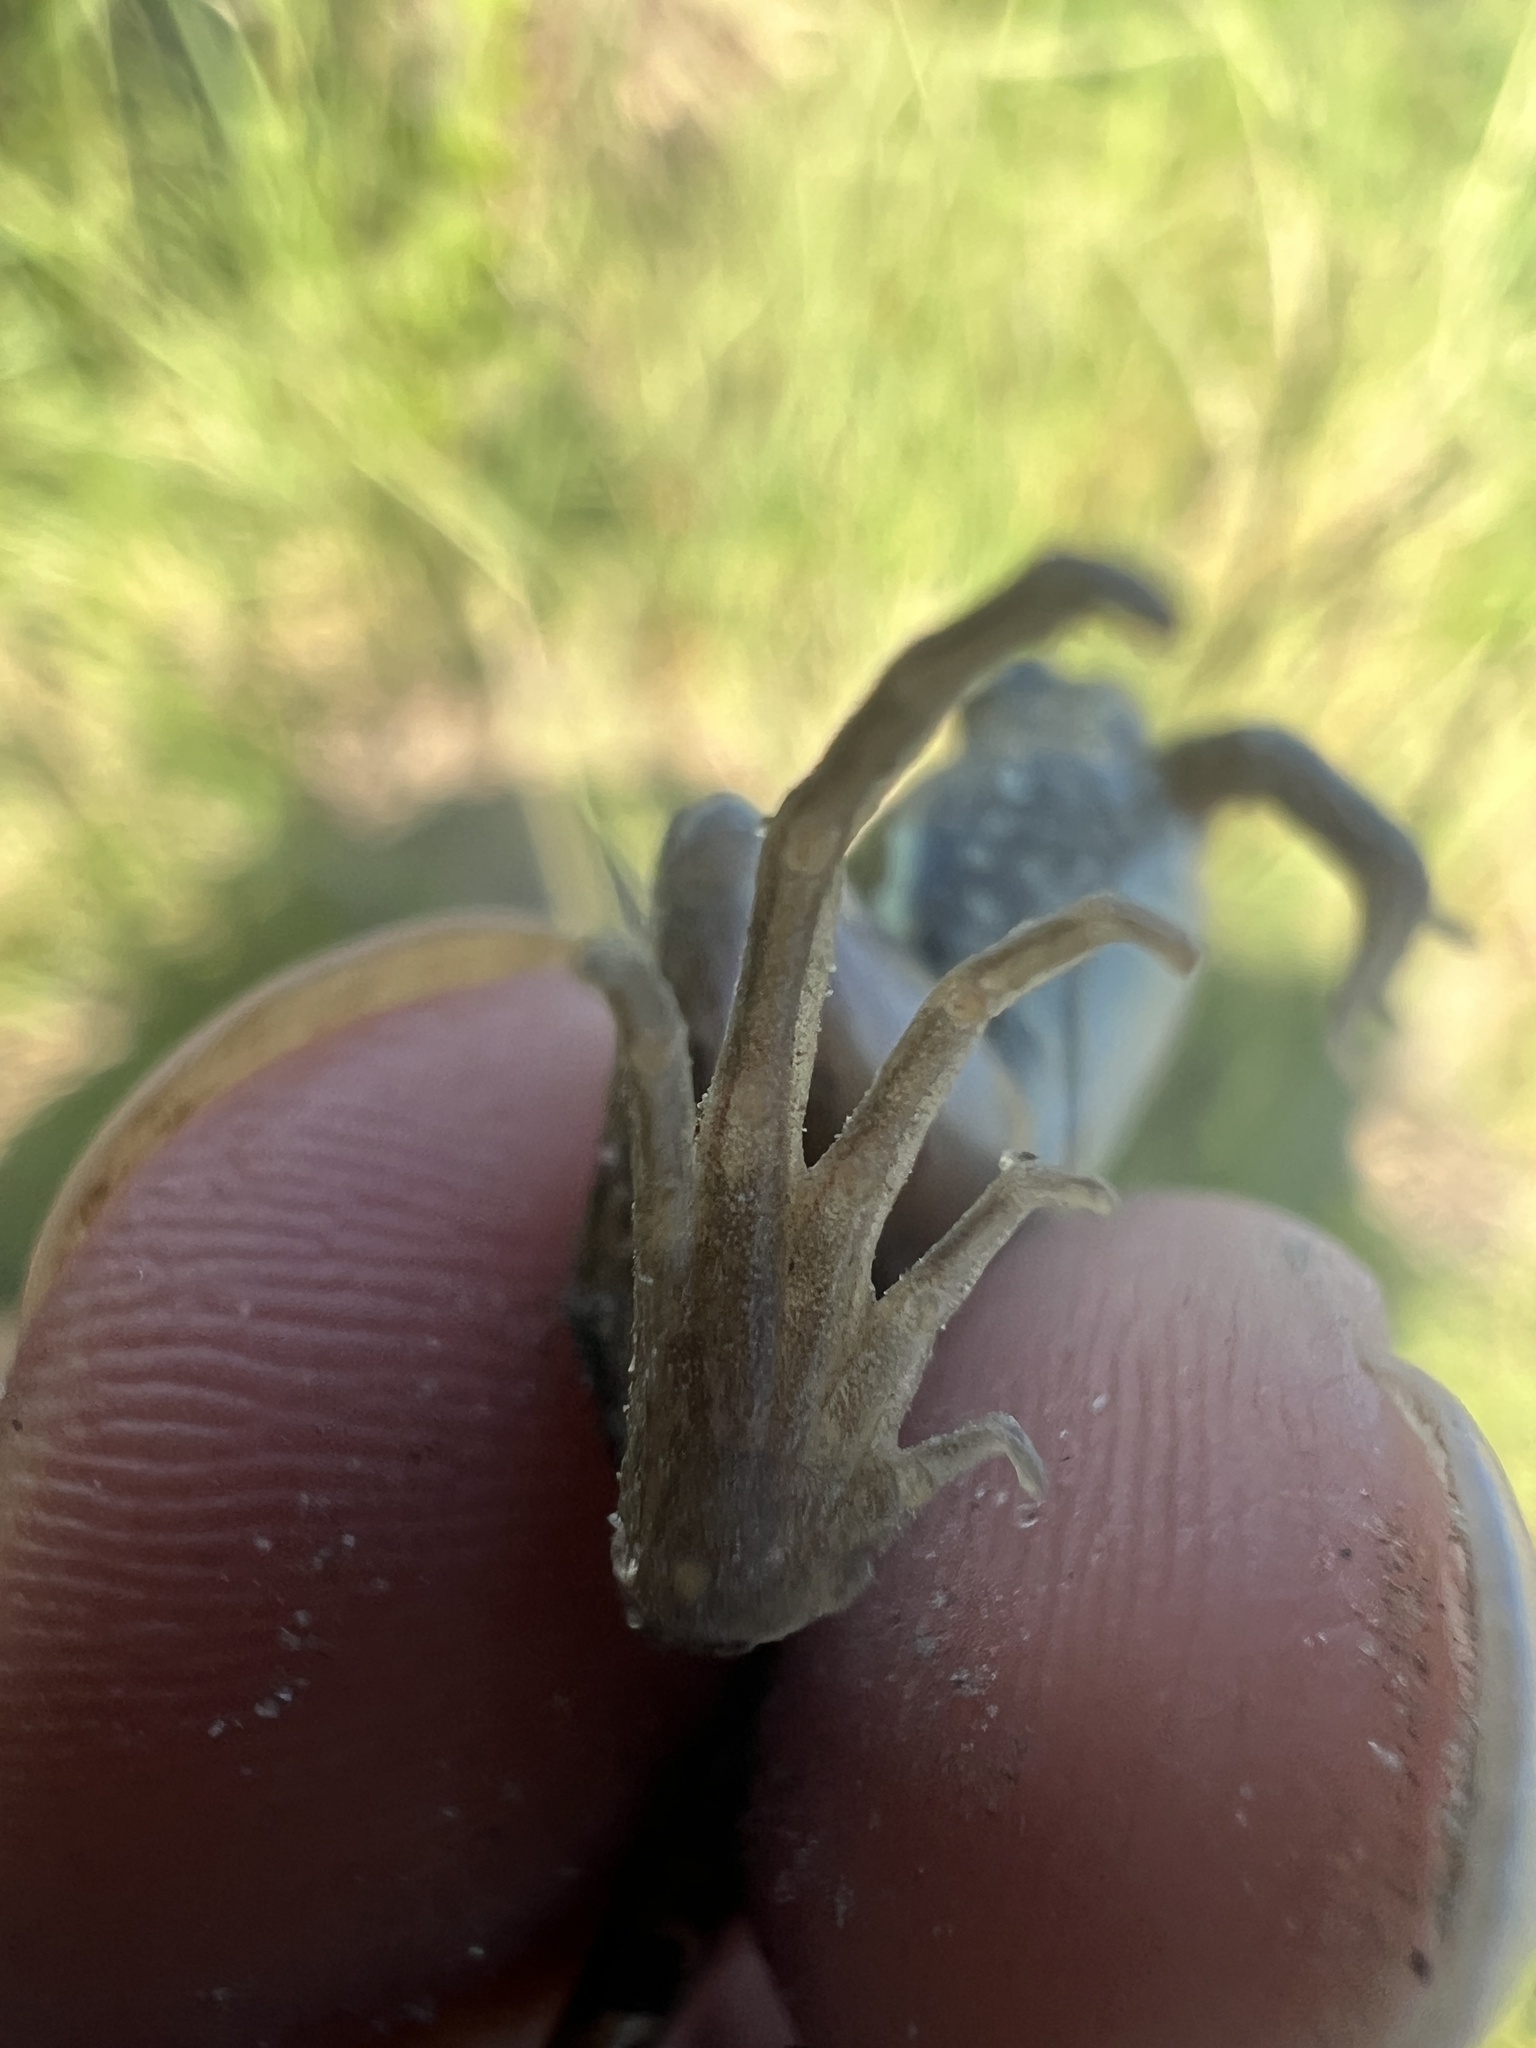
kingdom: Animalia
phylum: Chordata
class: Amphibia
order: Anura
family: Leptodactylidae
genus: Leptodactylus
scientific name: Leptodactylus macrosternum
